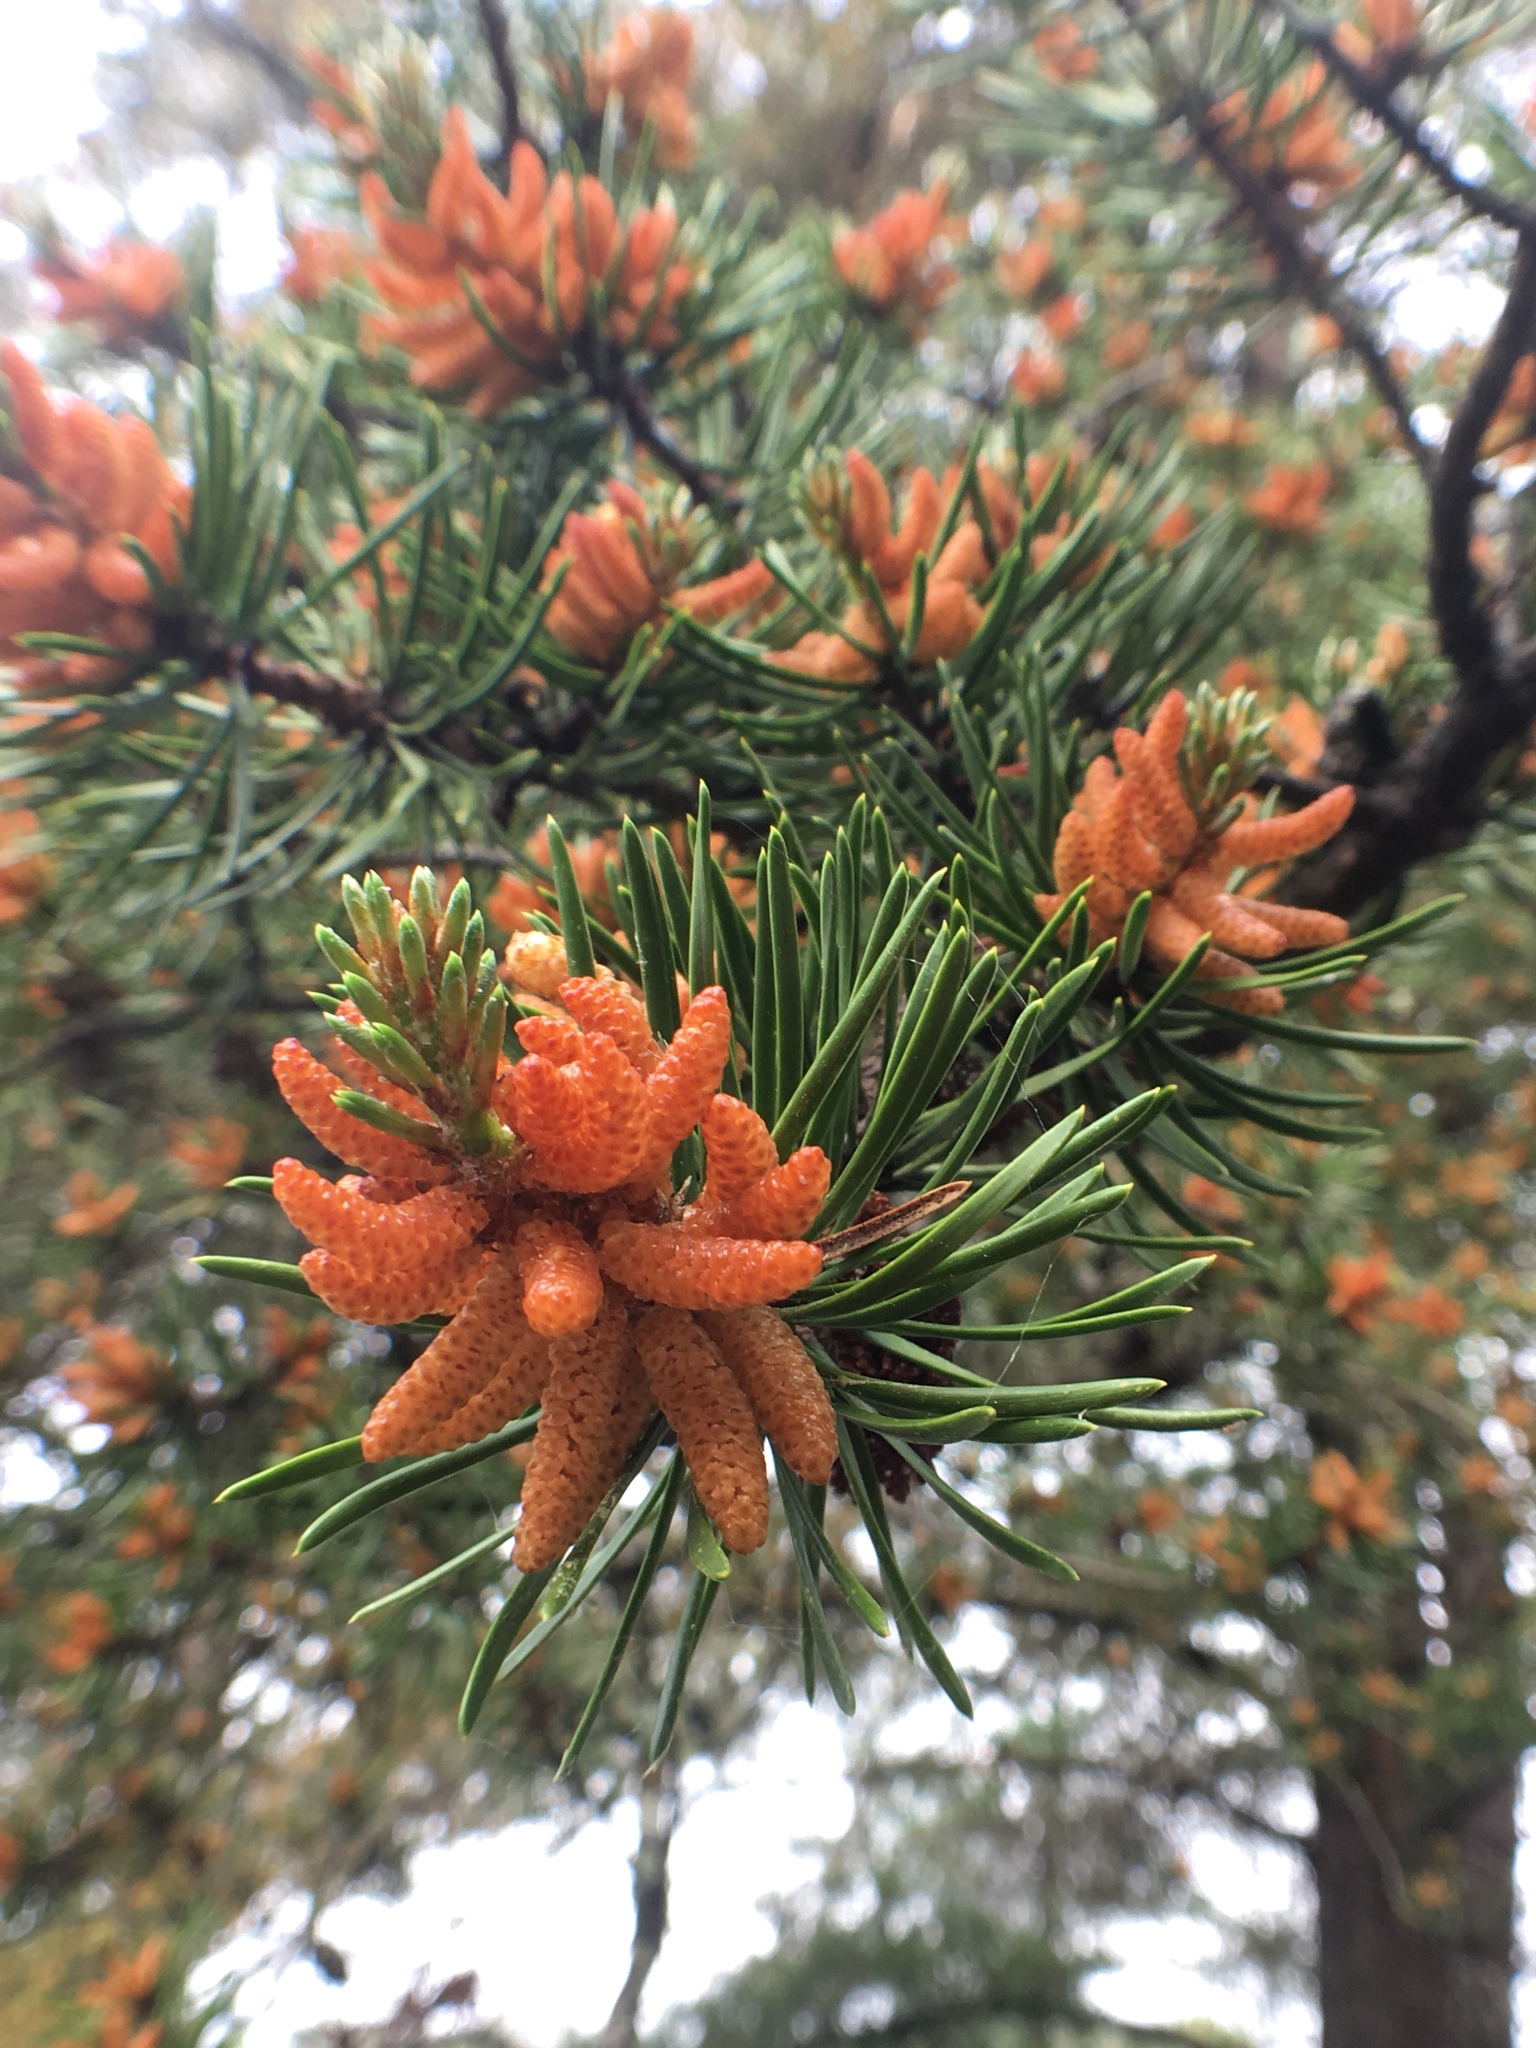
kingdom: Plantae
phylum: Tracheophyta
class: Pinopsida
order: Pinales
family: Pinaceae
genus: Pinus
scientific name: Pinus banksiana
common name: Jack pine
